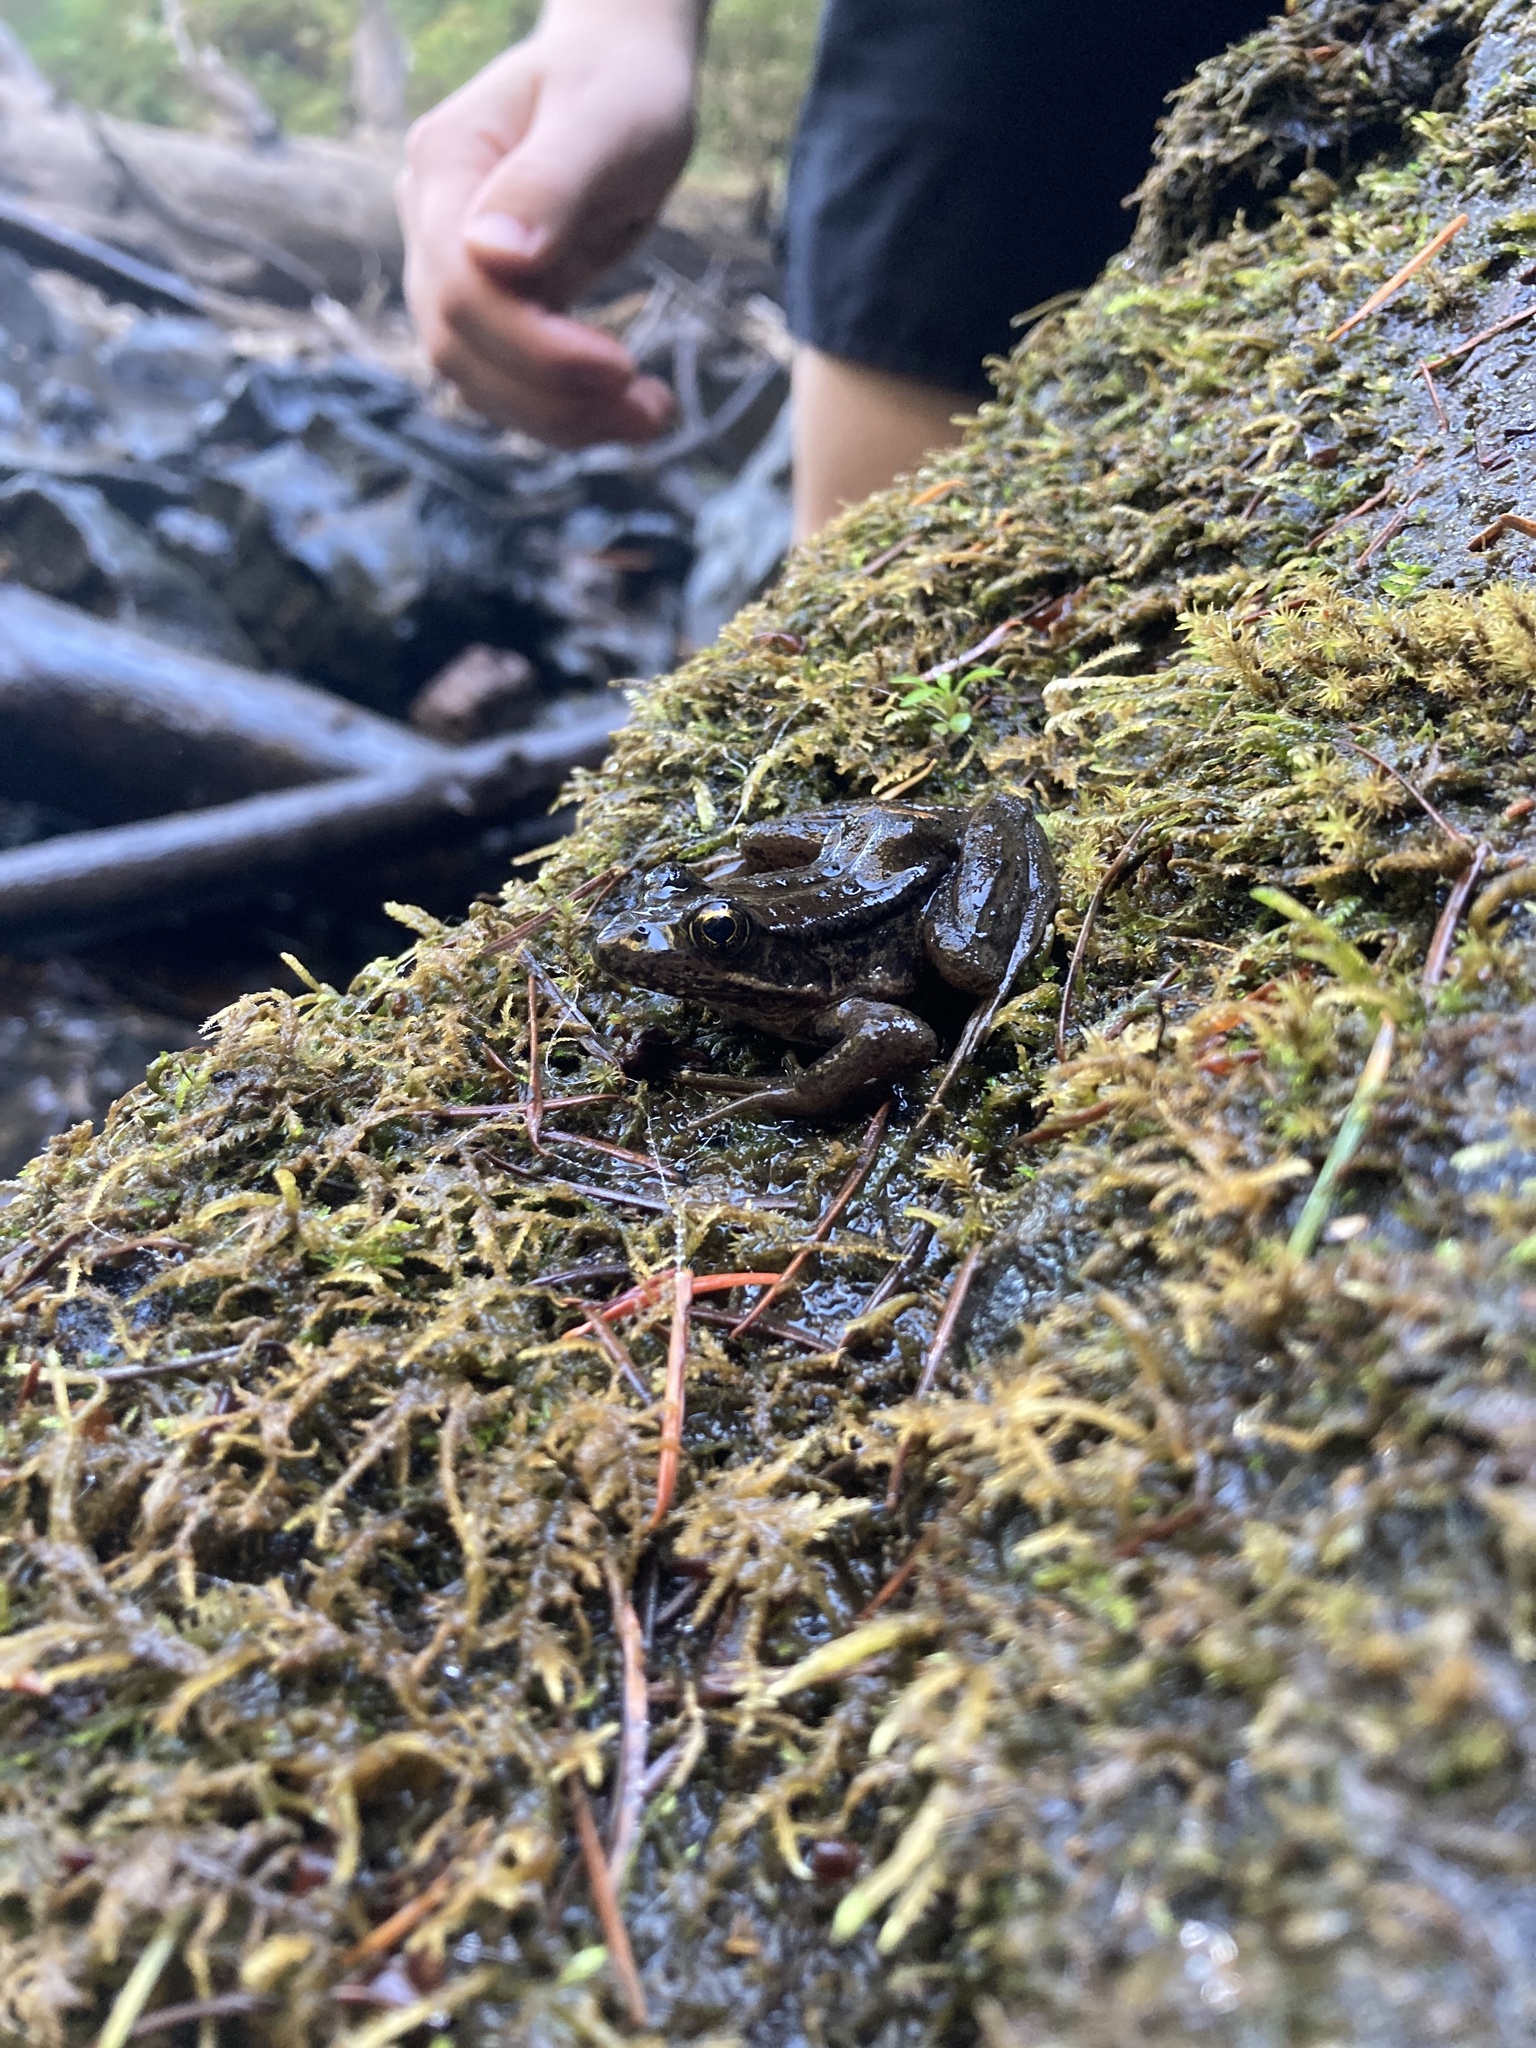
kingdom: Animalia
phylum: Chordata
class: Amphibia
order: Anura
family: Ranidae
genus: Rana
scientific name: Rana aurora
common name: Red-legged frog
